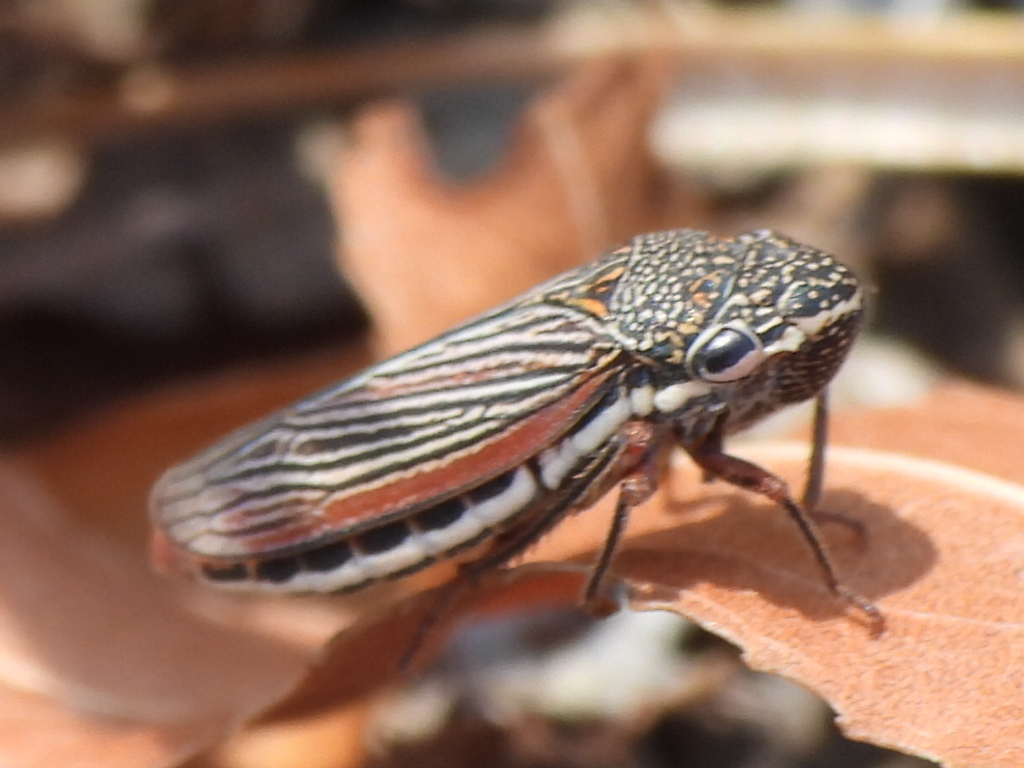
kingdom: Animalia
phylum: Arthropoda
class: Insecta
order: Hemiptera
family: Cicadellidae
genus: Cuerna
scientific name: Cuerna costalis
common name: Lateral-lined sharpshooter
